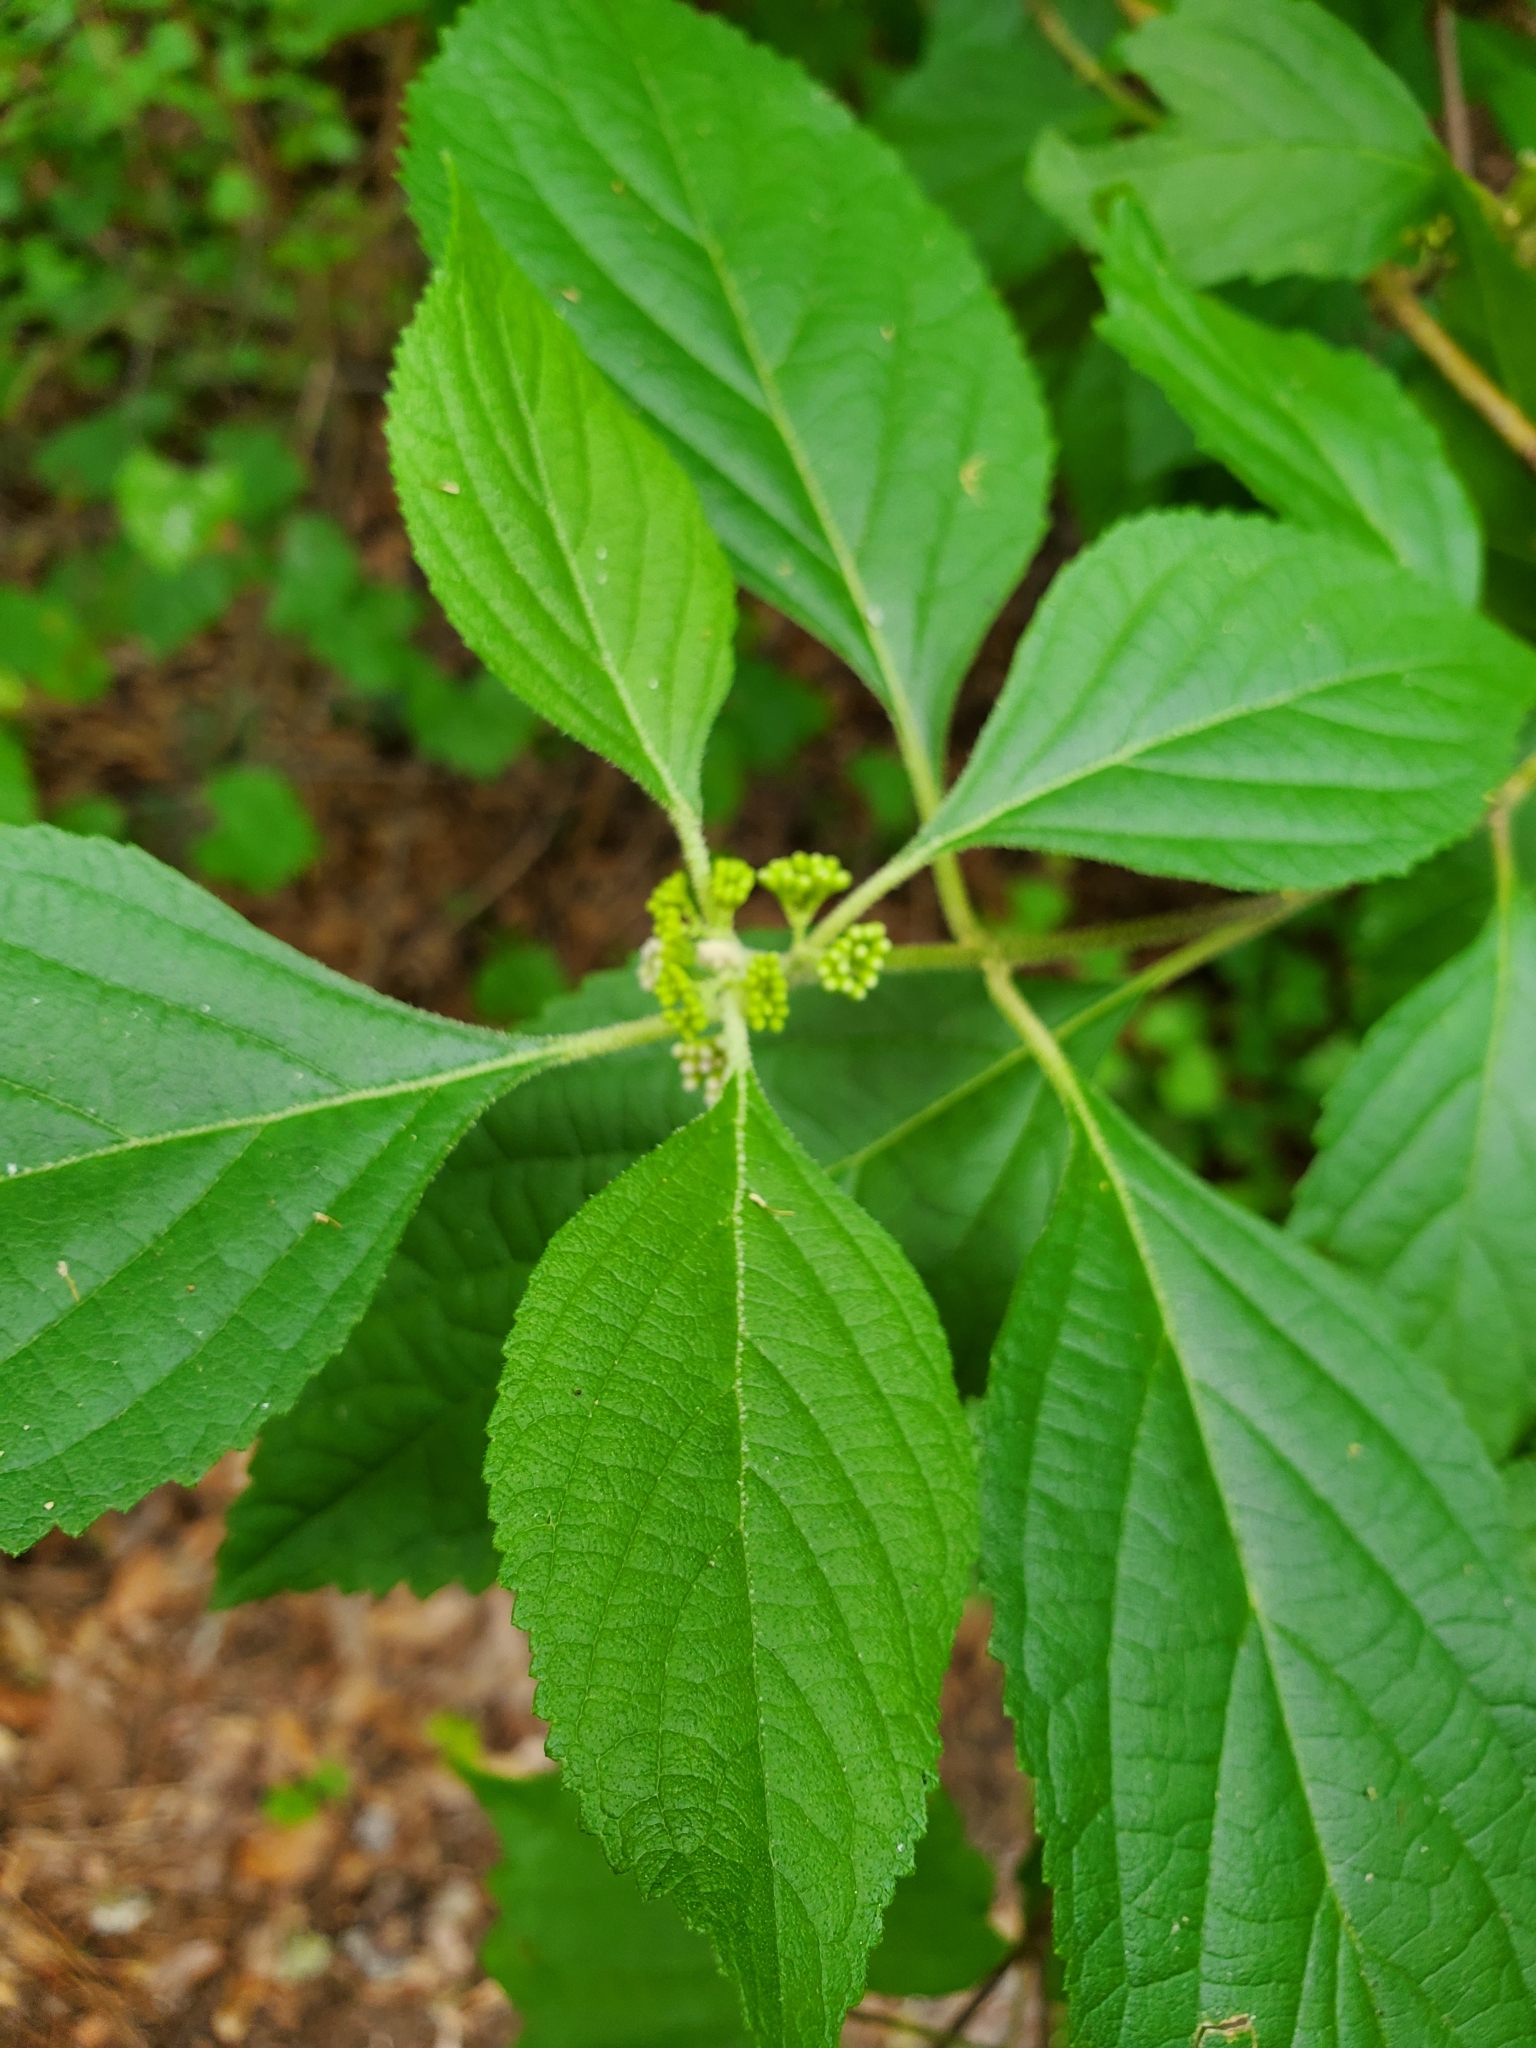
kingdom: Plantae
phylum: Tracheophyta
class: Magnoliopsida
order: Lamiales
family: Lamiaceae
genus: Callicarpa
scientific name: Callicarpa americana
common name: American beautyberry
